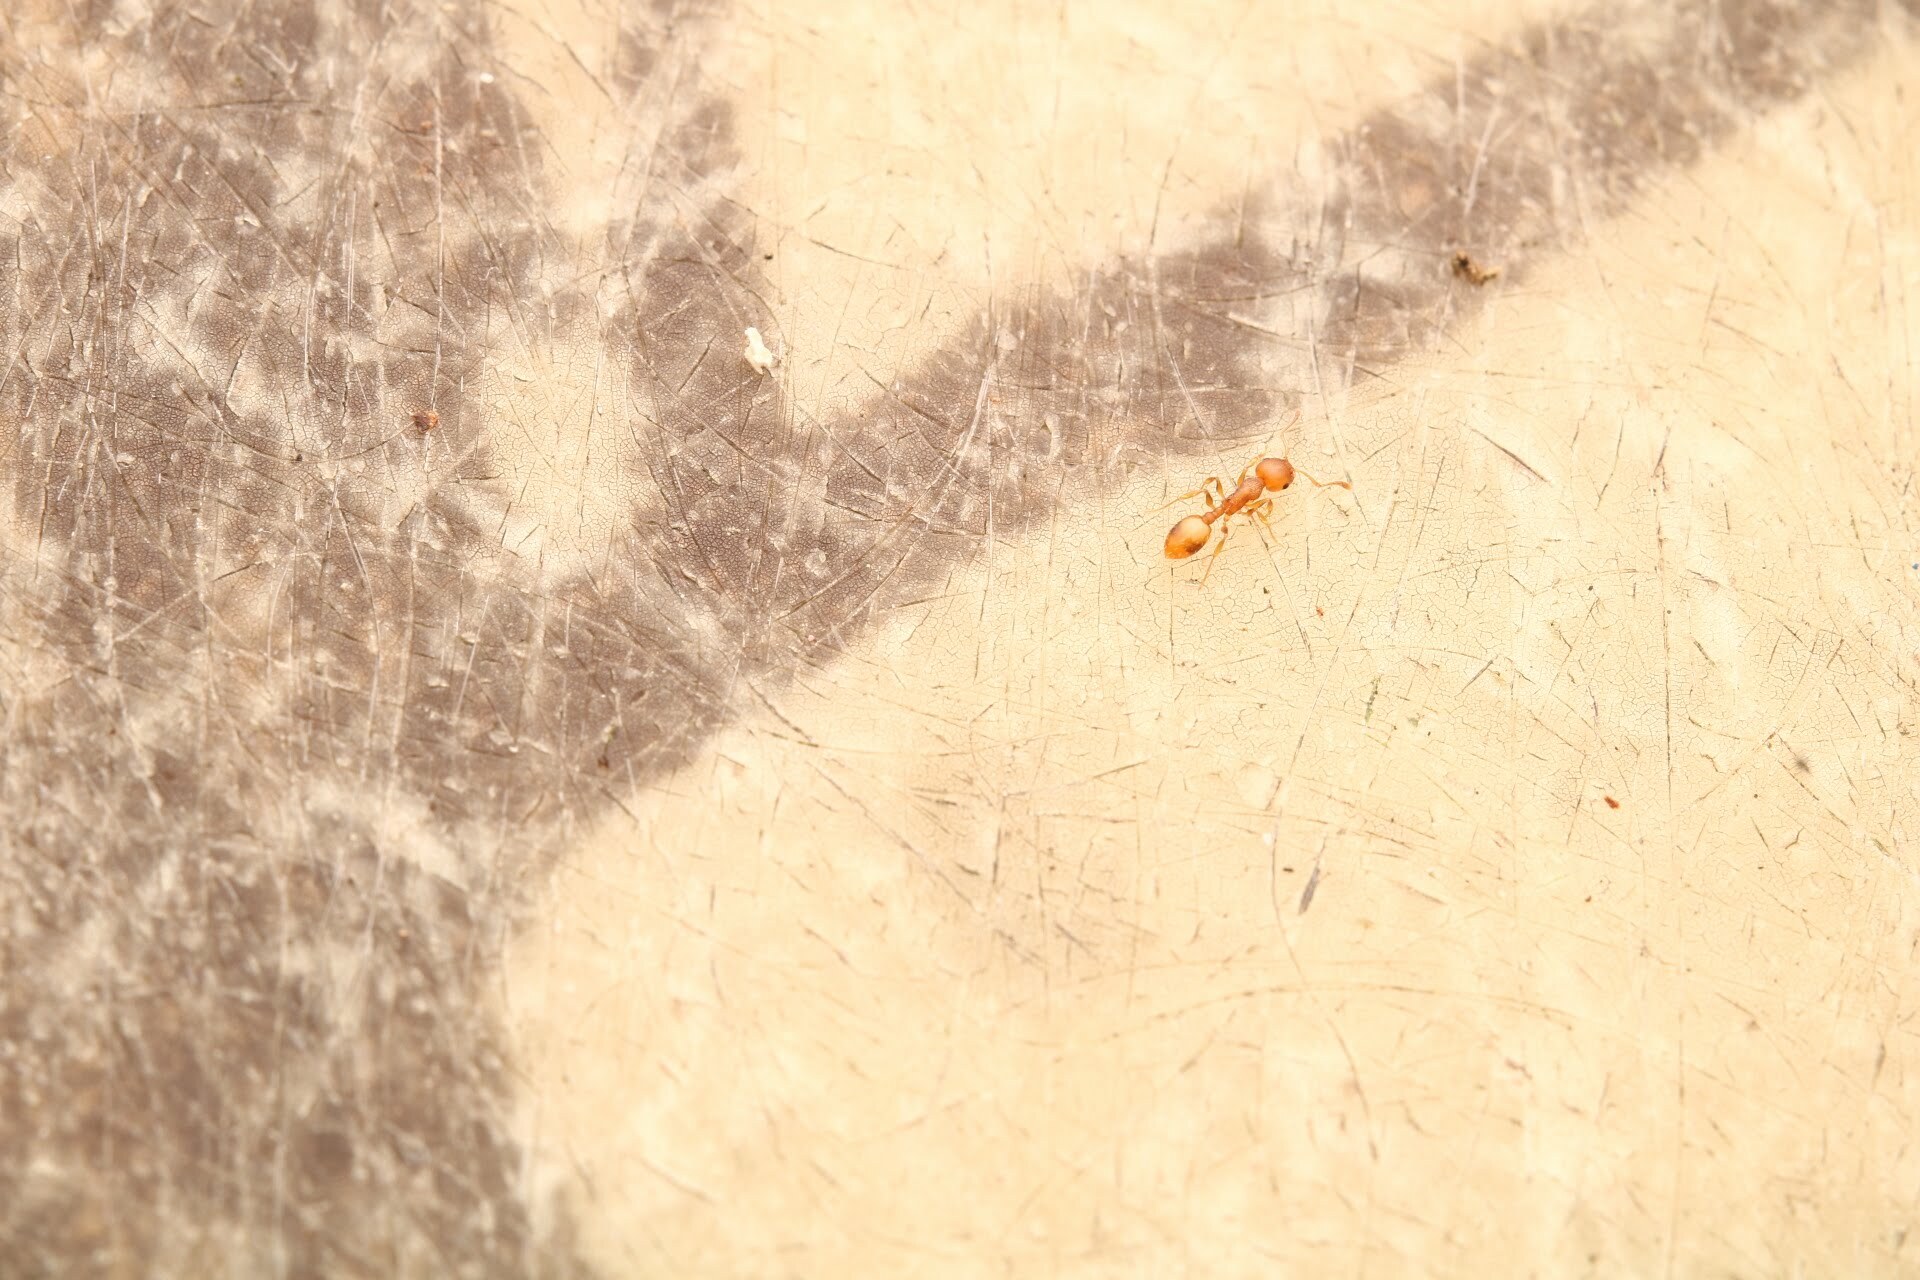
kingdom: Animalia
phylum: Arthropoda
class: Insecta
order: Hymenoptera
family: Formicidae
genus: Temnothorax
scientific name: Temnothorax curvispinosus
